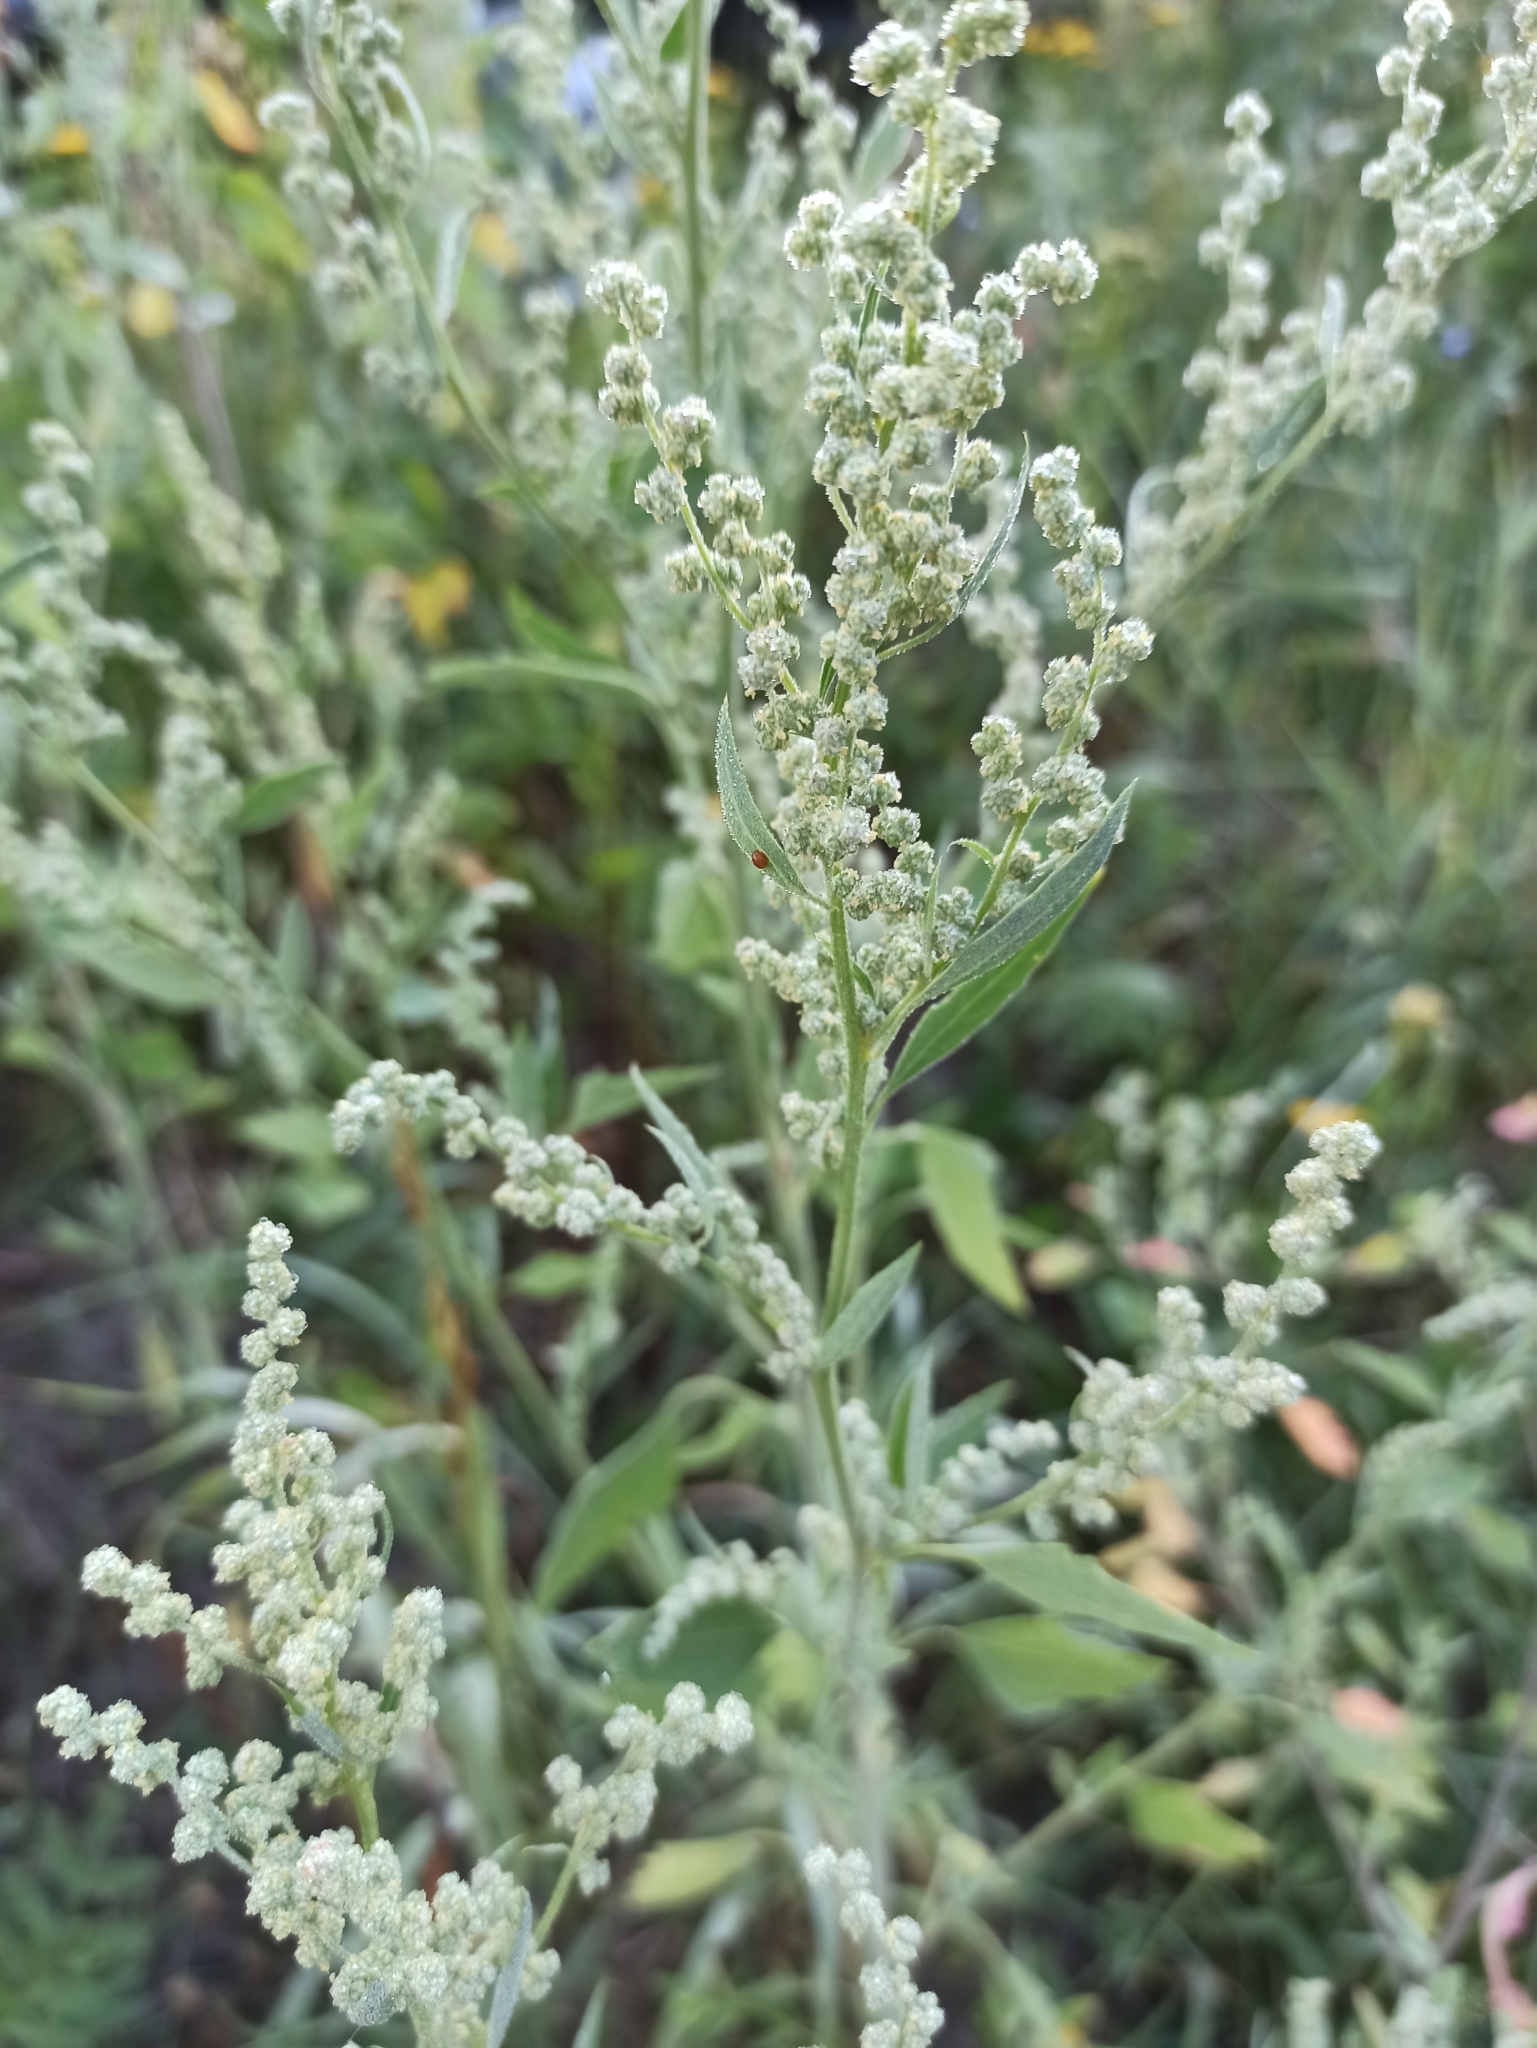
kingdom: Plantae
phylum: Tracheophyta
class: Magnoliopsida
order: Caryophyllales
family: Amaranthaceae
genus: Chenopodium
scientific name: Chenopodium album
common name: Fat-hen
